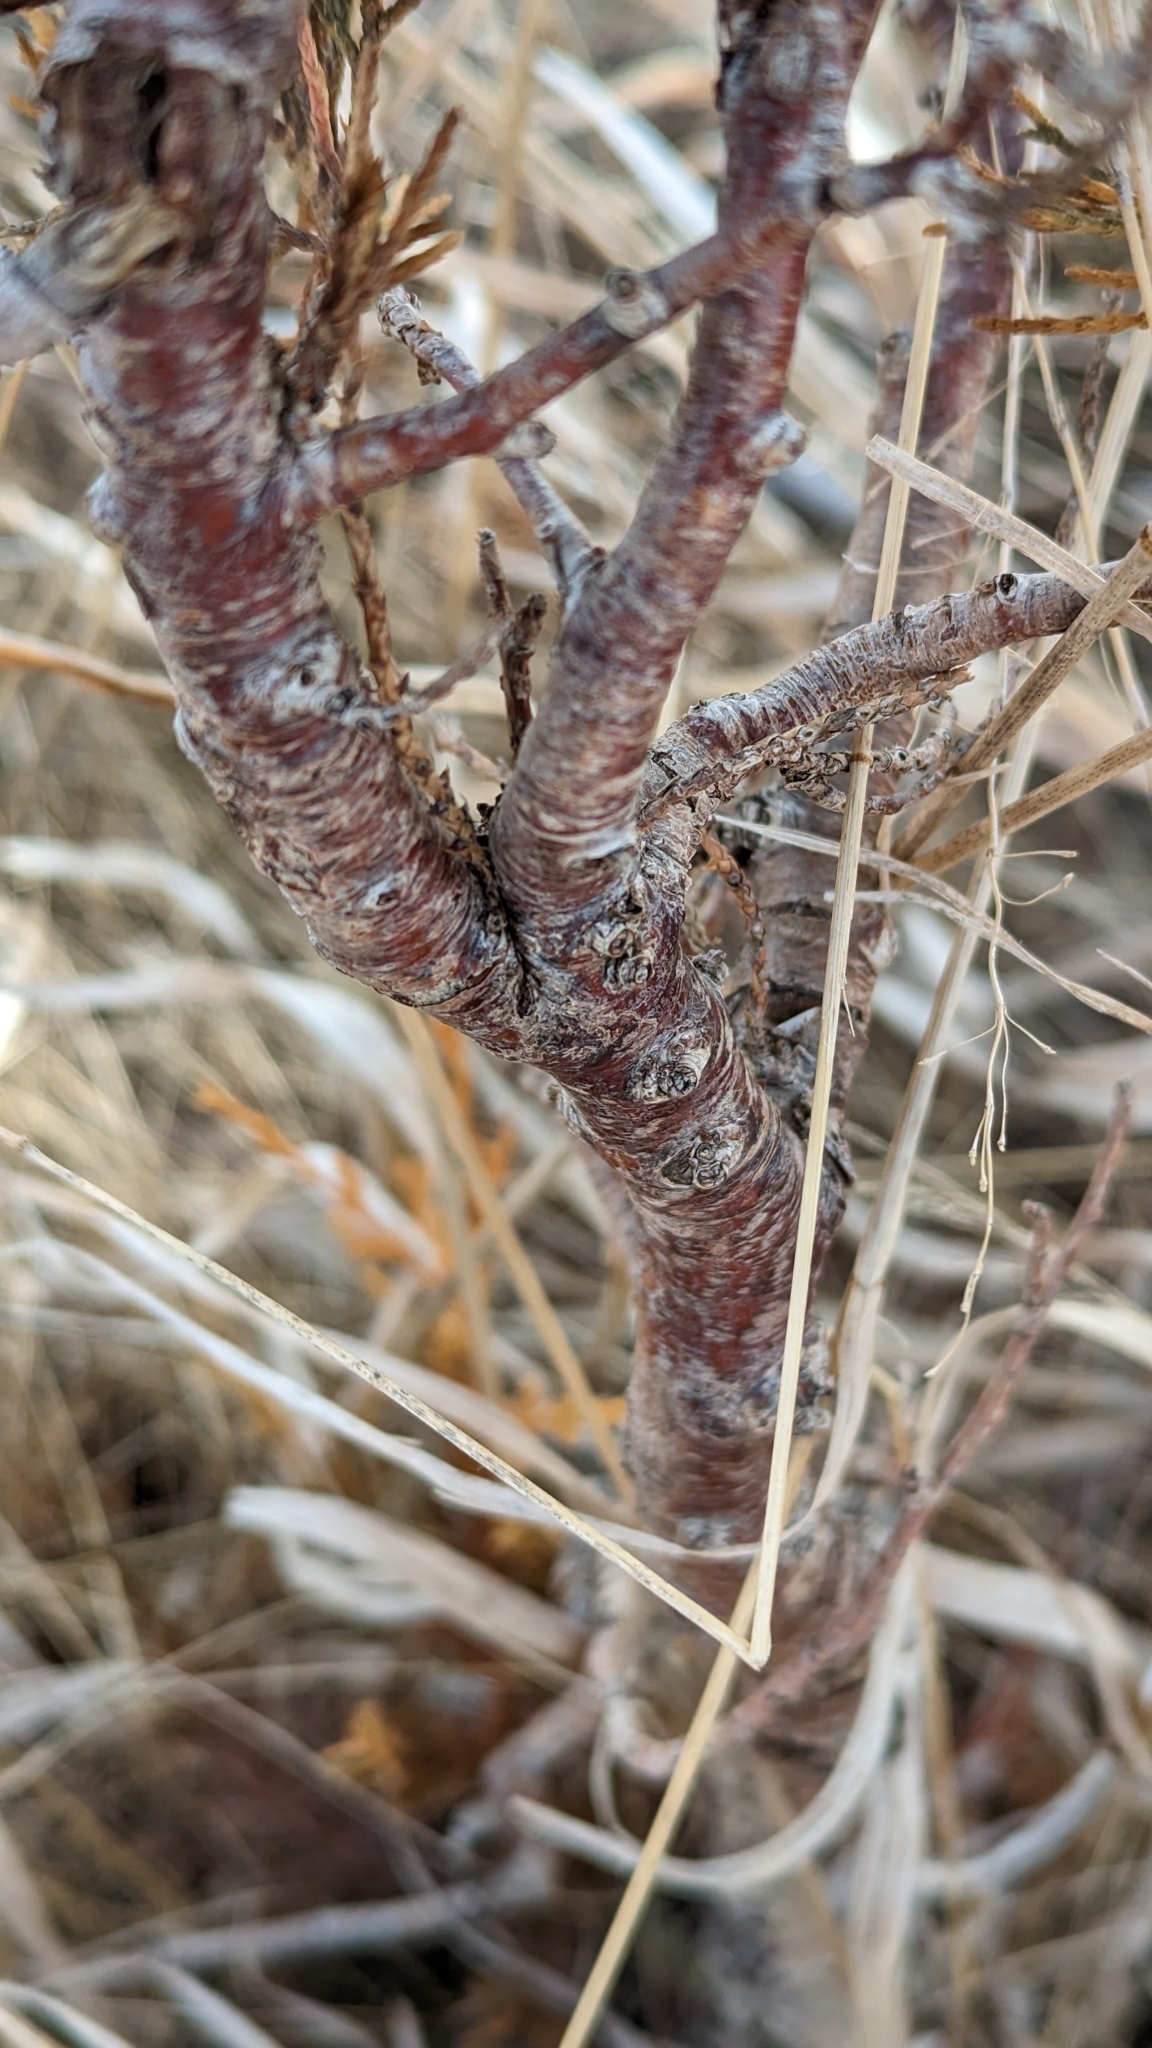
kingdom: Plantae
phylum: Tracheophyta
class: Pinopsida
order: Pinales
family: Cupressaceae
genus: Juniperus
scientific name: Juniperus virginiana
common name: Red juniper
